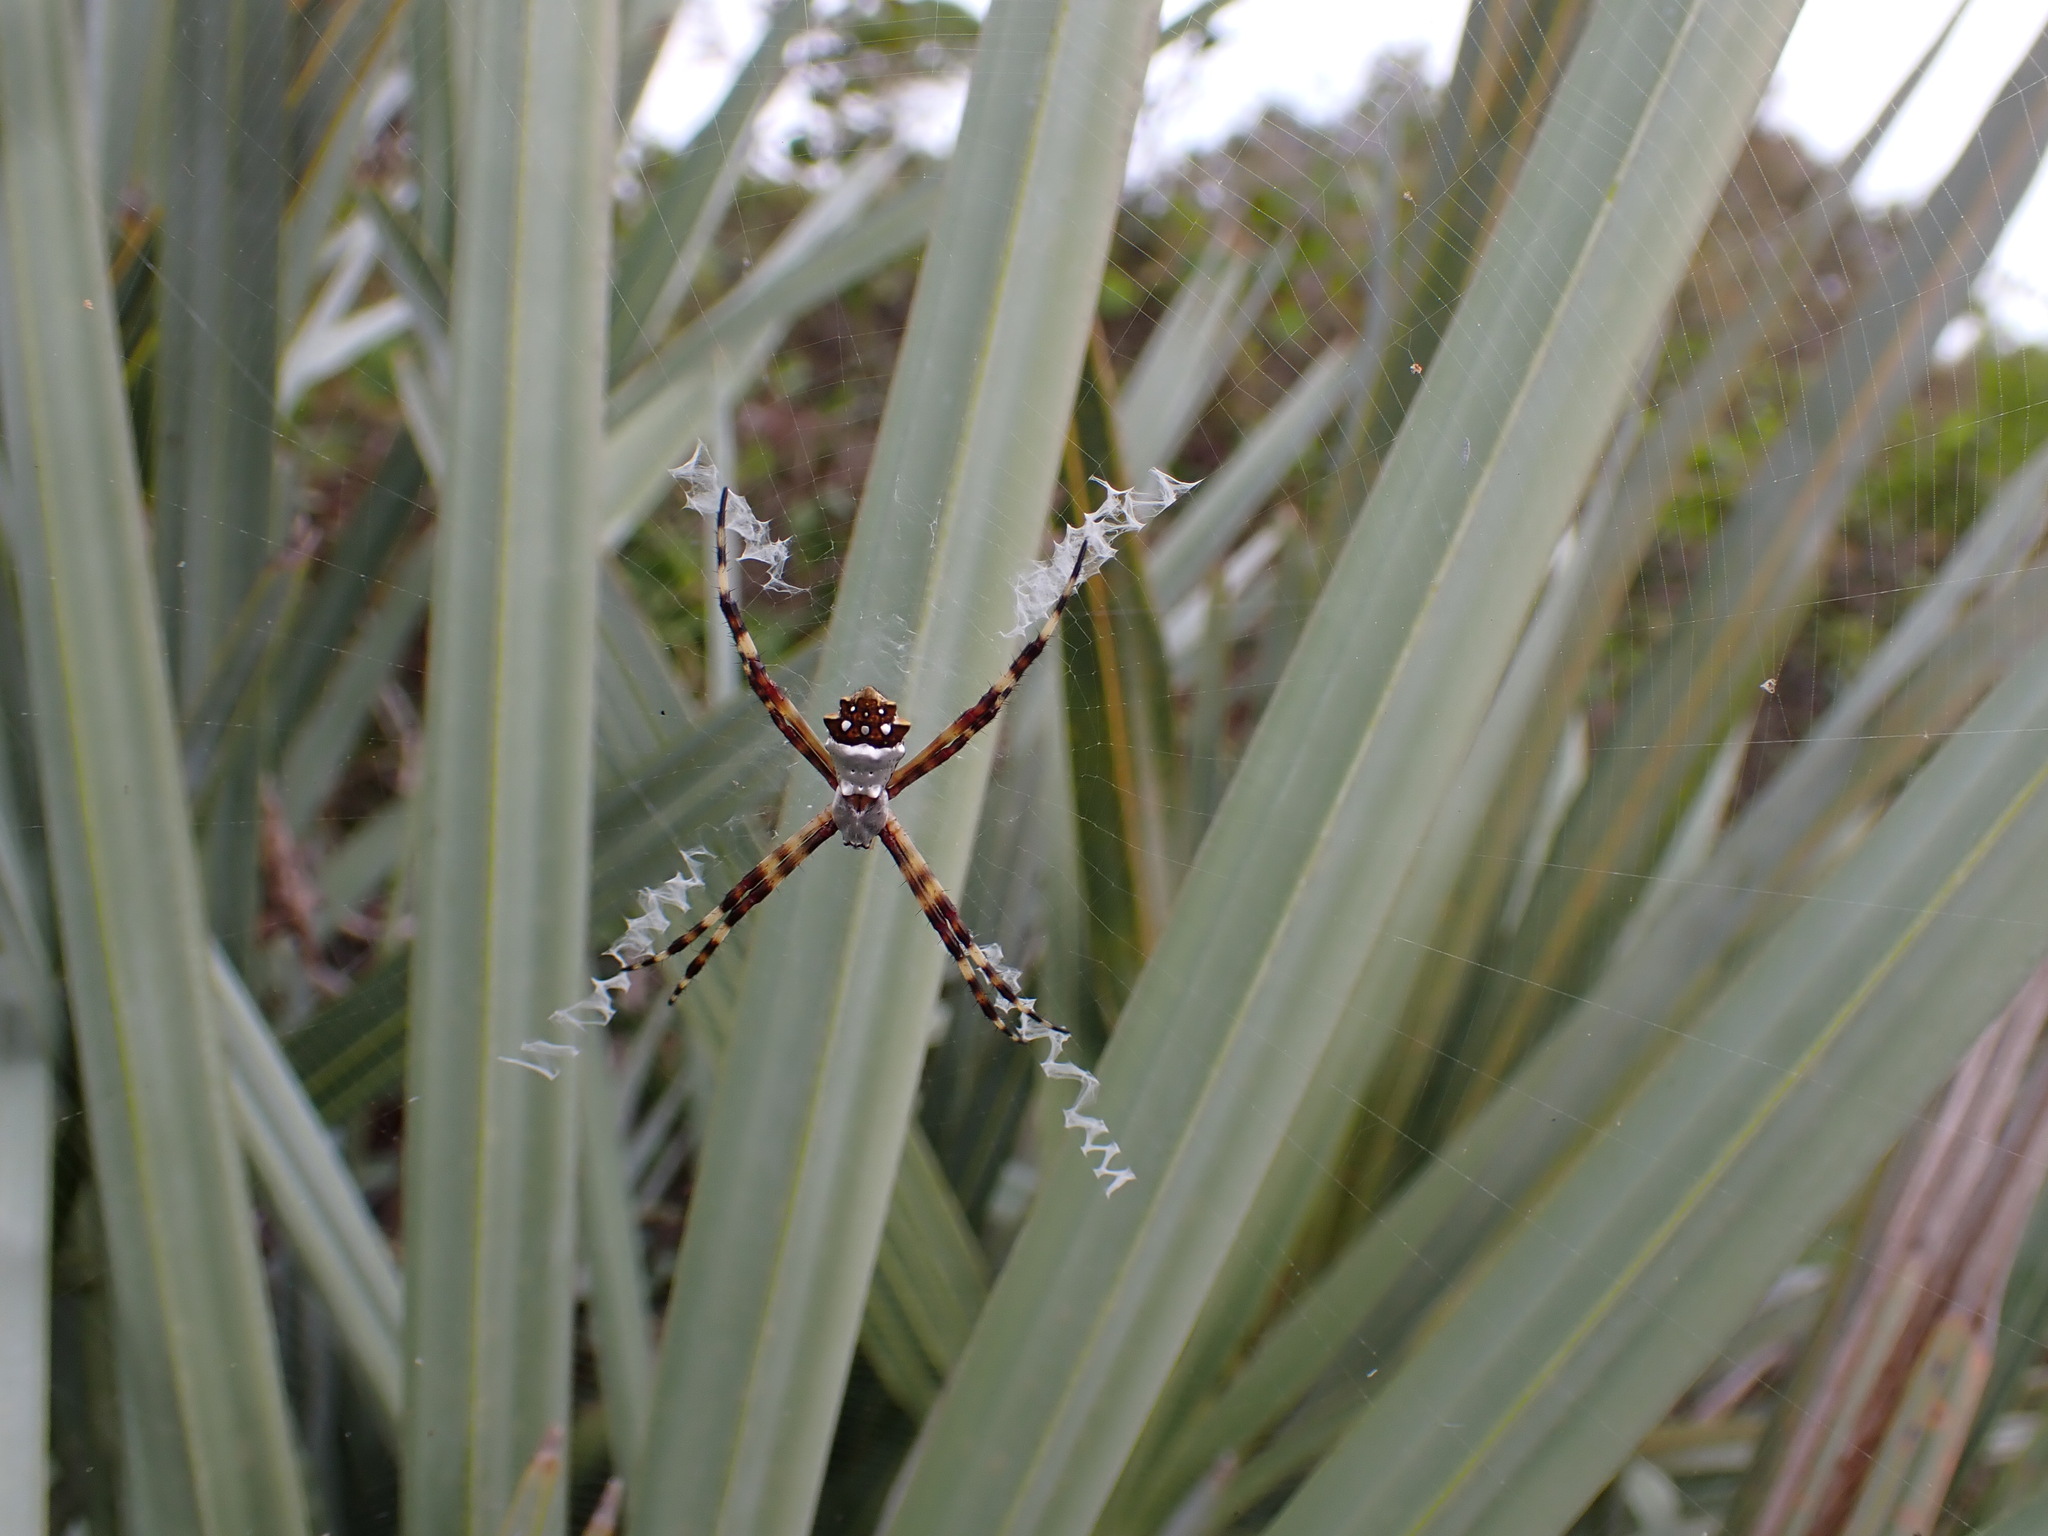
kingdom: Animalia
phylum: Arthropoda
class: Arachnida
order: Araneae
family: Araneidae
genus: Argiope
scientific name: Argiope argentata
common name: Orb weavers
